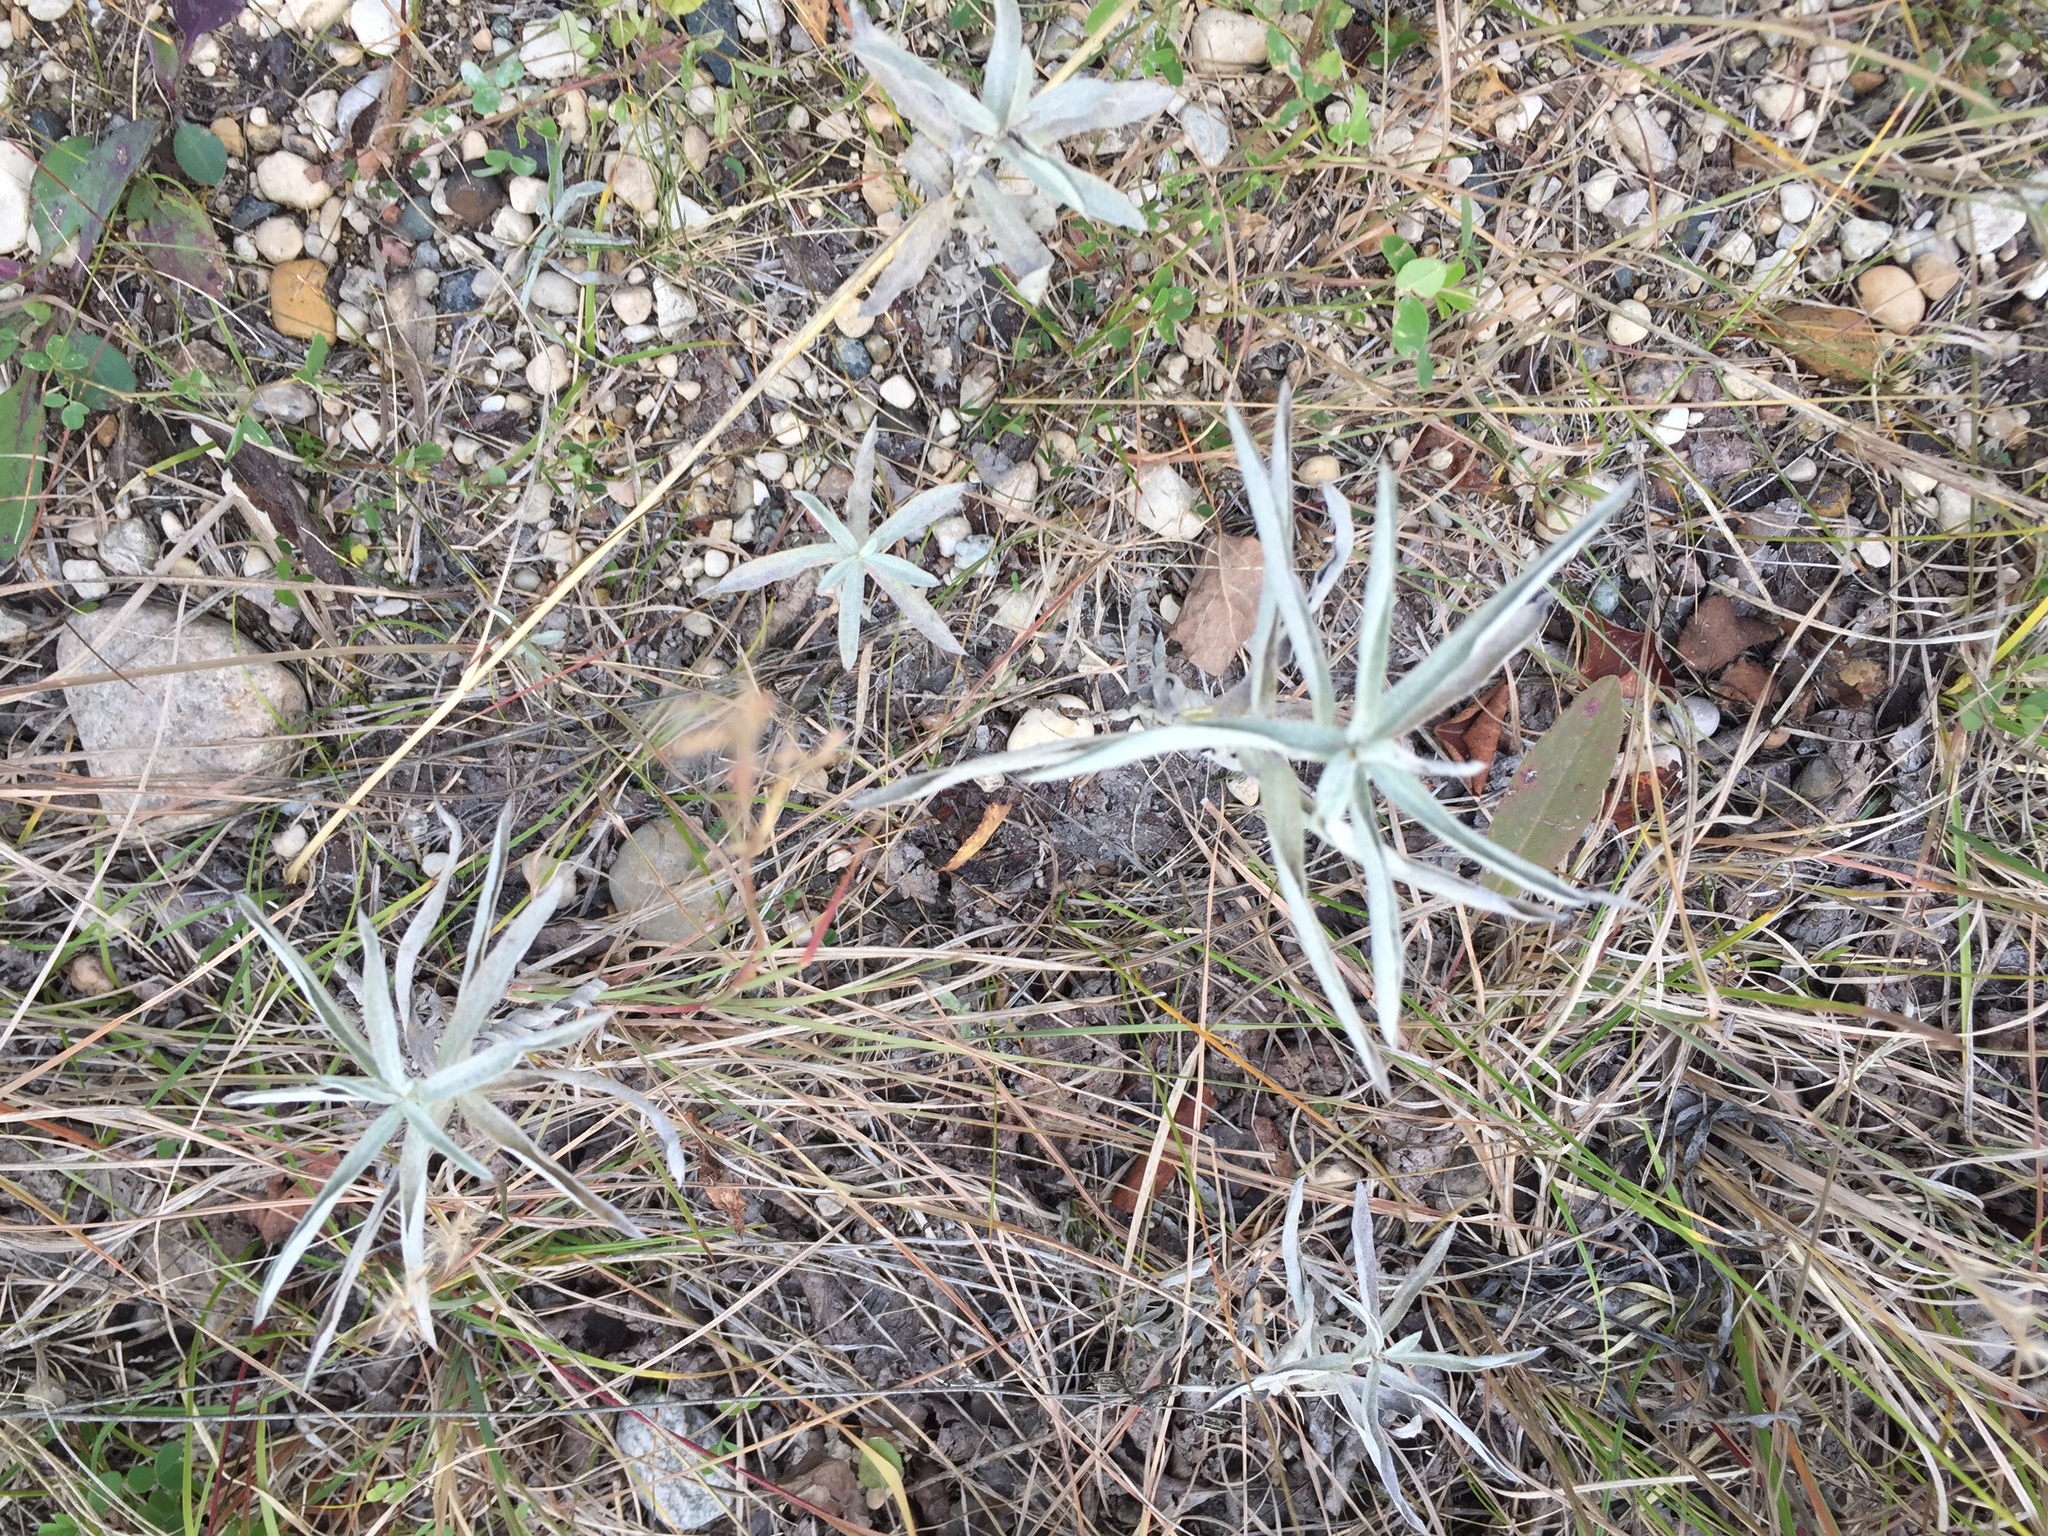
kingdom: Plantae
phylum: Tracheophyta
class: Magnoliopsida
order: Asterales
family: Asteraceae
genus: Artemisia
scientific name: Artemisia ludoviciana
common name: Western mugwort
